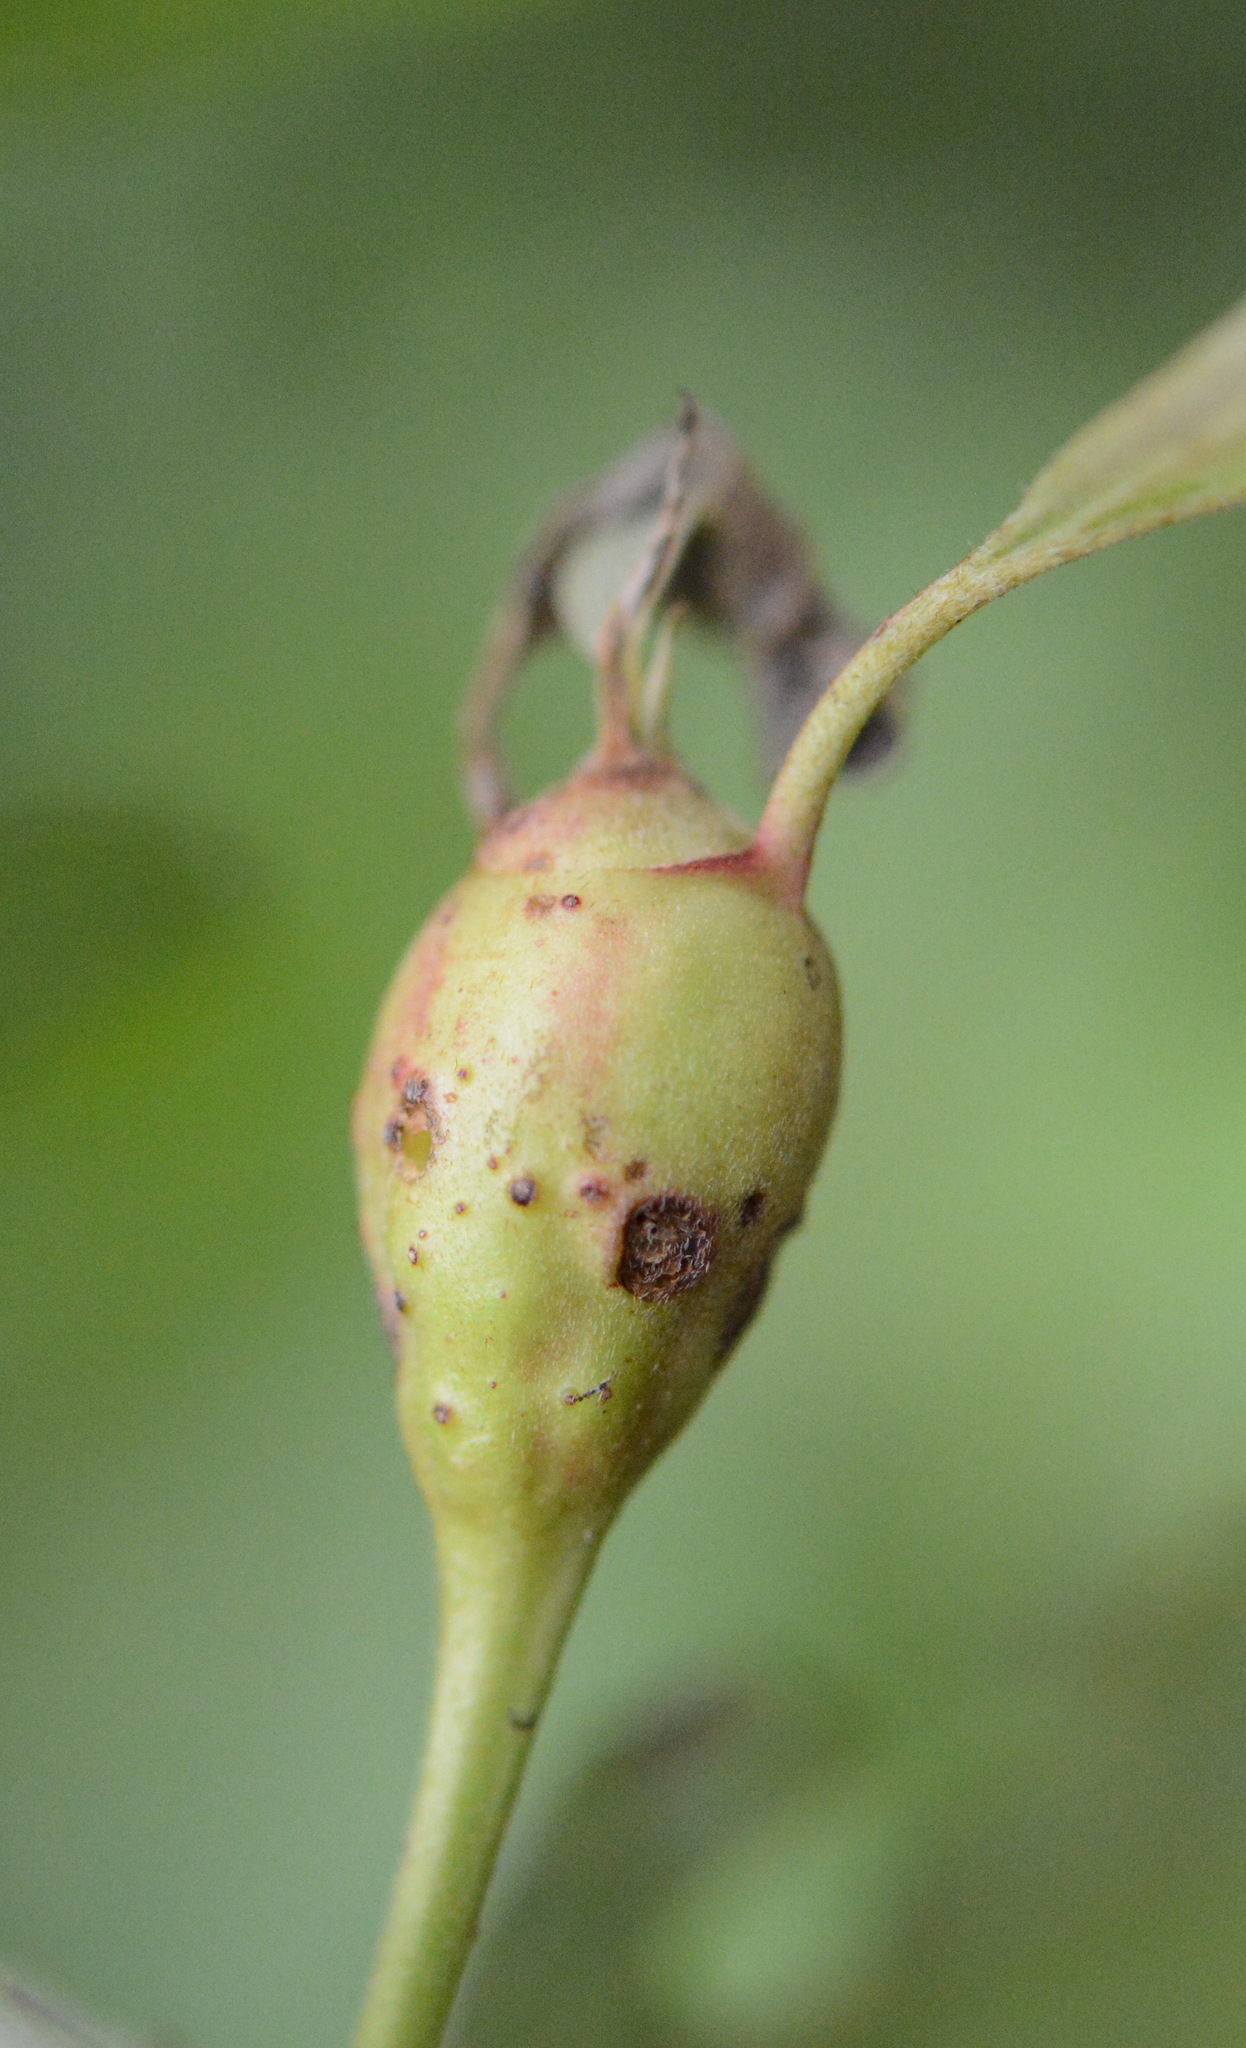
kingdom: Animalia
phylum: Arthropoda
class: Insecta
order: Diptera
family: Cecidomyiidae
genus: Resseliella
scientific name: Resseliella clavula
